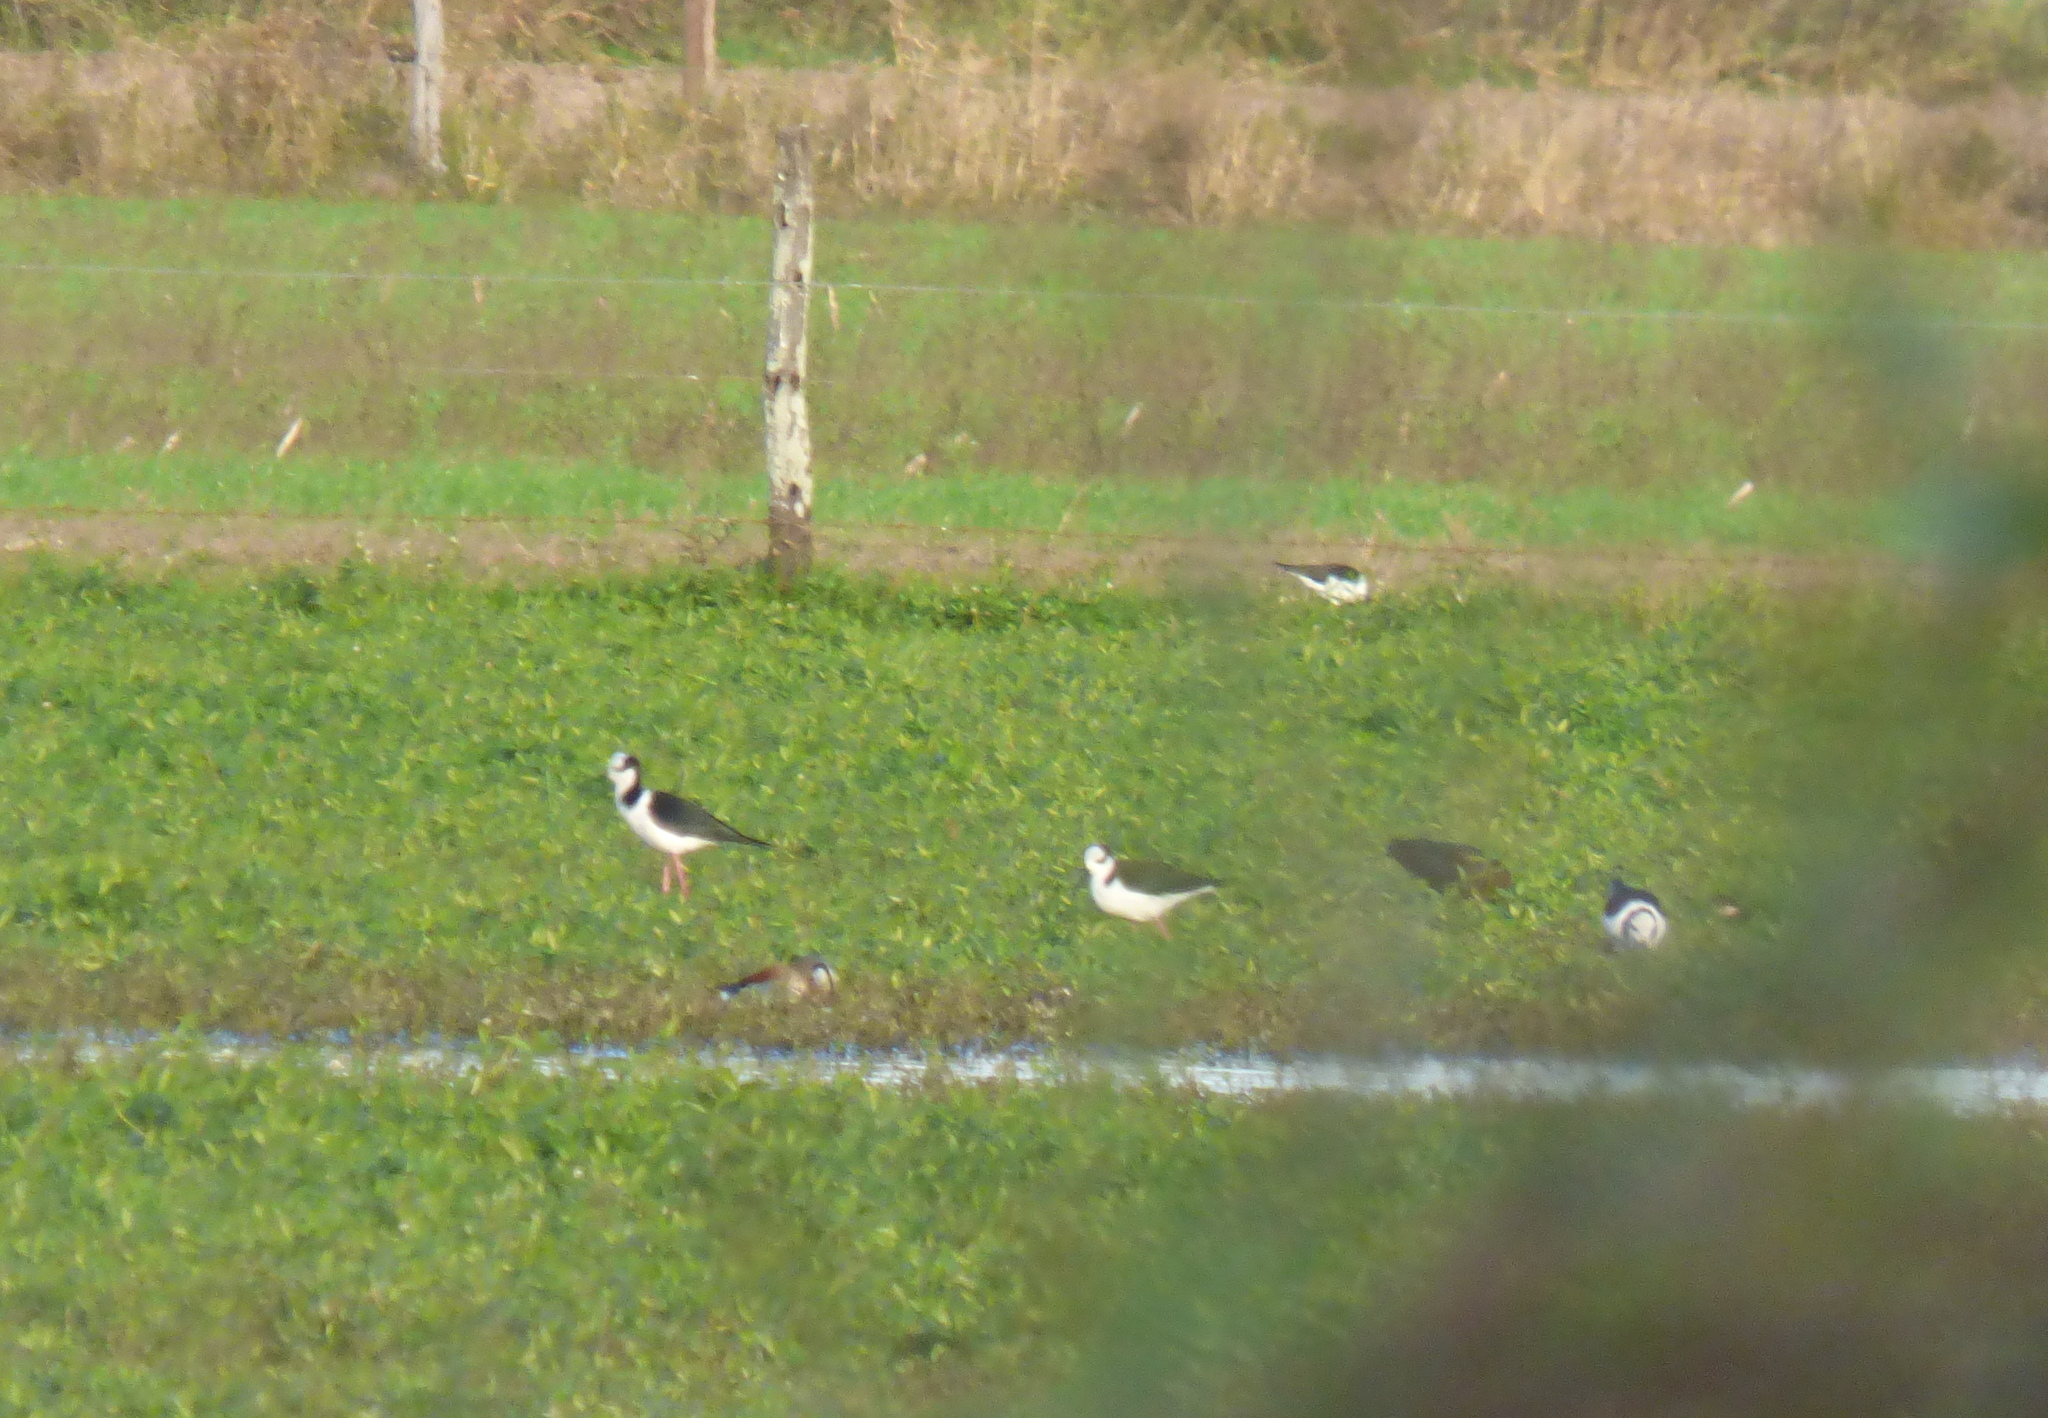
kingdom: Animalia
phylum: Chordata
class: Aves
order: Charadriiformes
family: Recurvirostridae
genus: Himantopus
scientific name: Himantopus mexicanus
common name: Black-necked stilt
